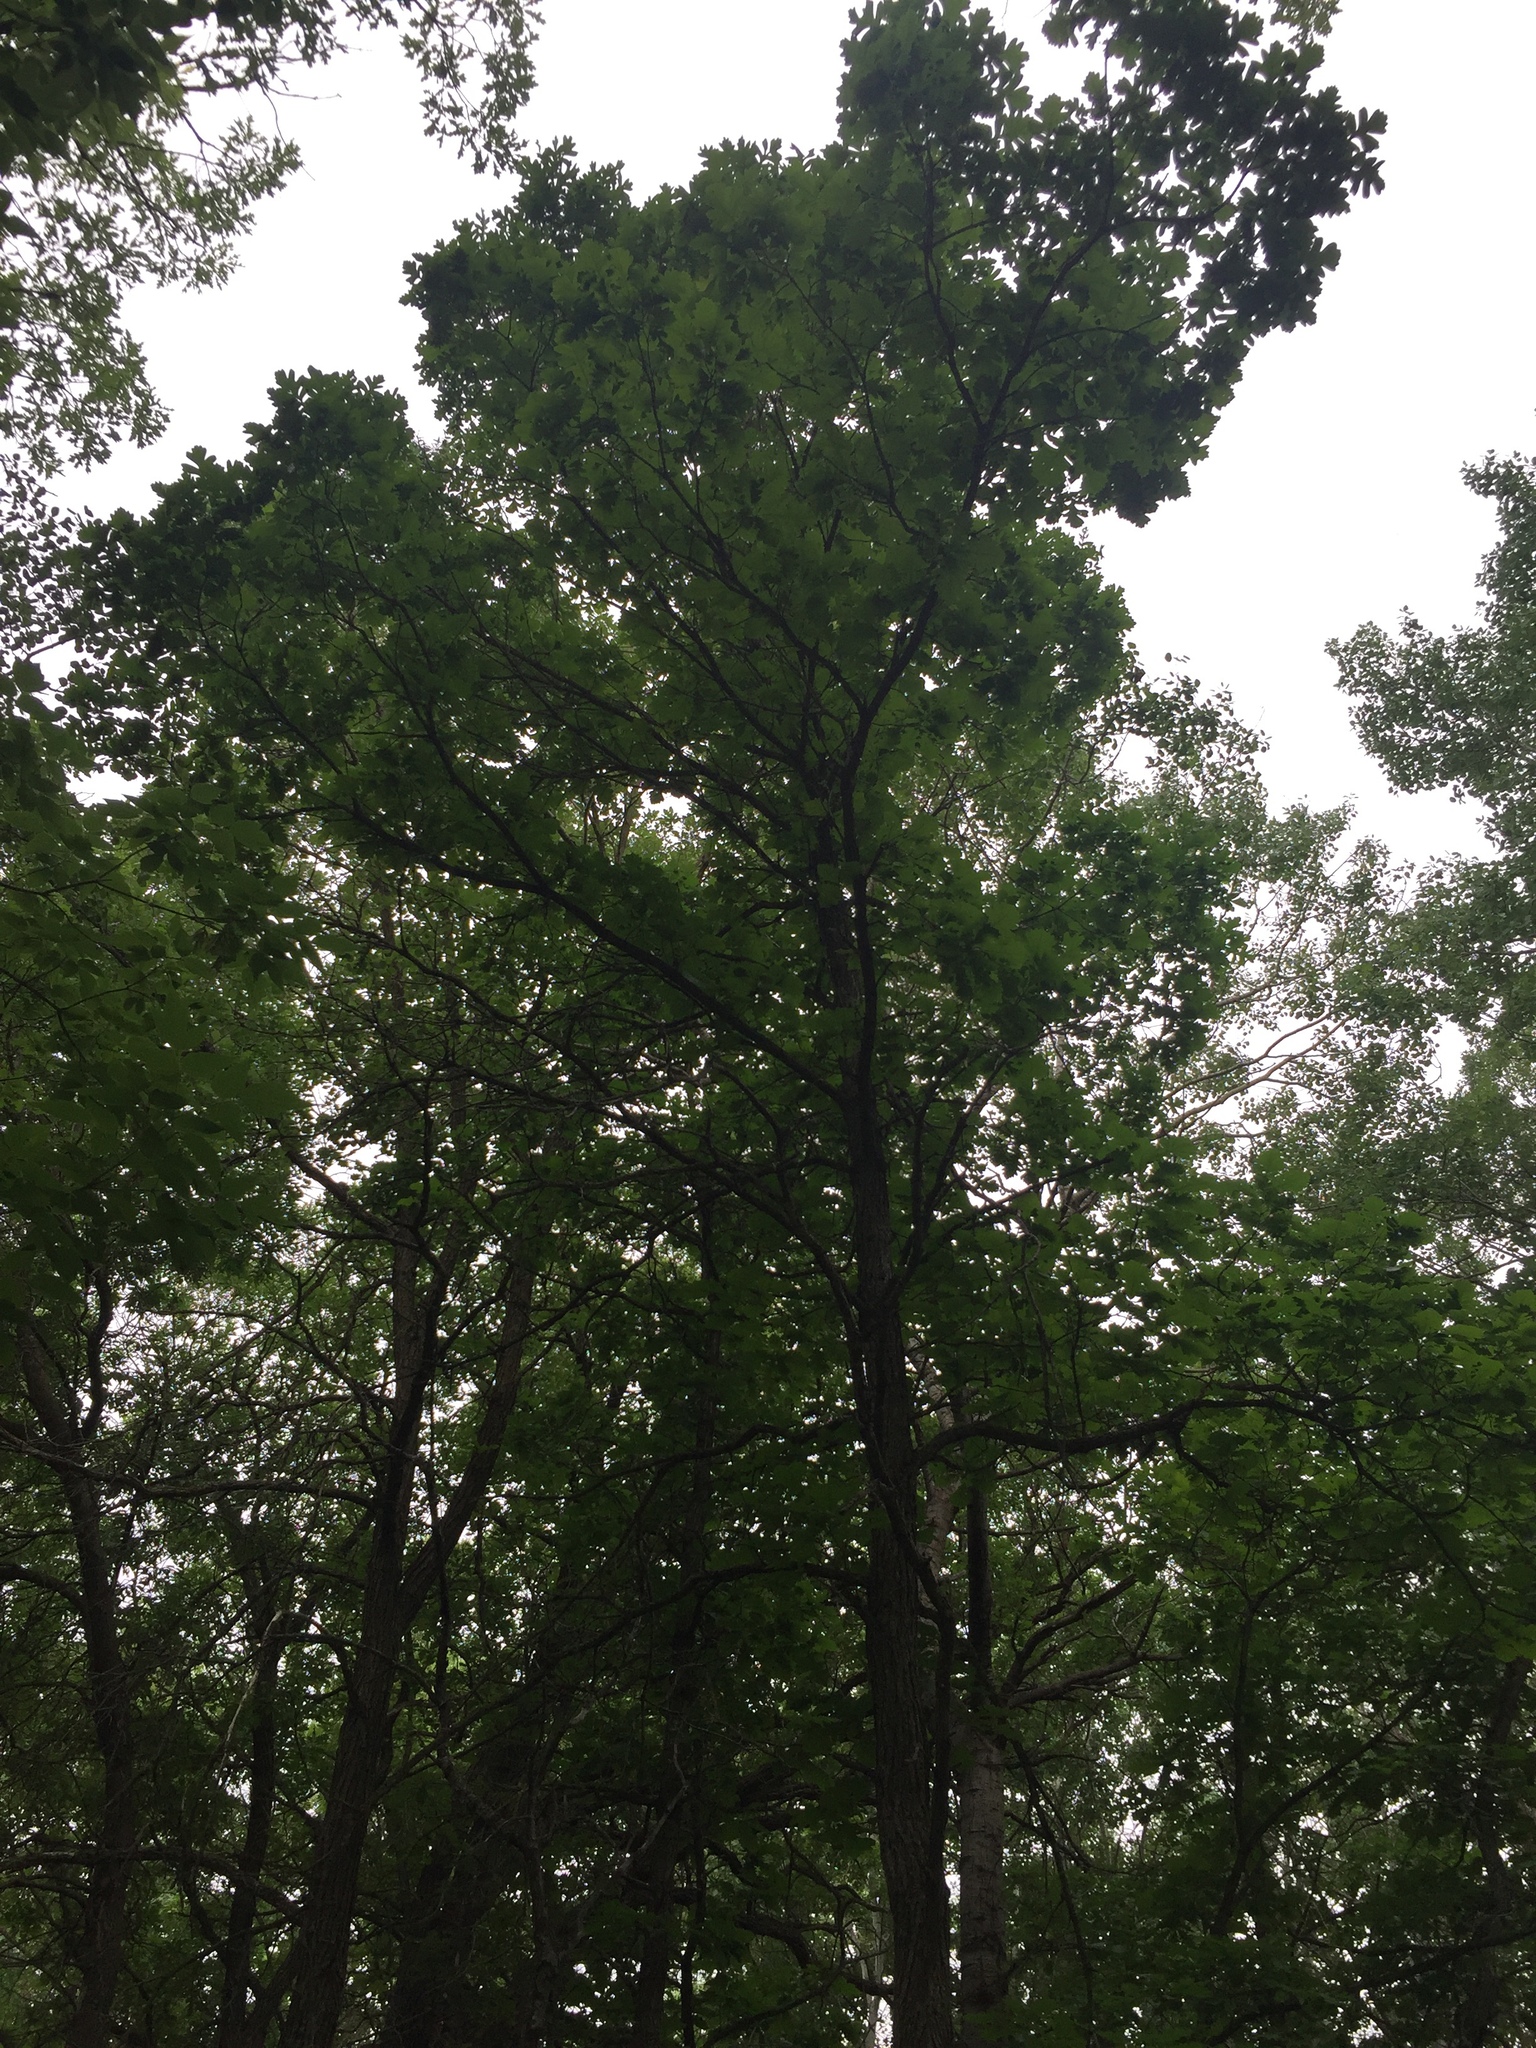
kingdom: Plantae
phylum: Tracheophyta
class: Magnoliopsida
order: Fagales
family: Fagaceae
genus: Quercus
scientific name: Quercus macrocarpa
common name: Bur oak
